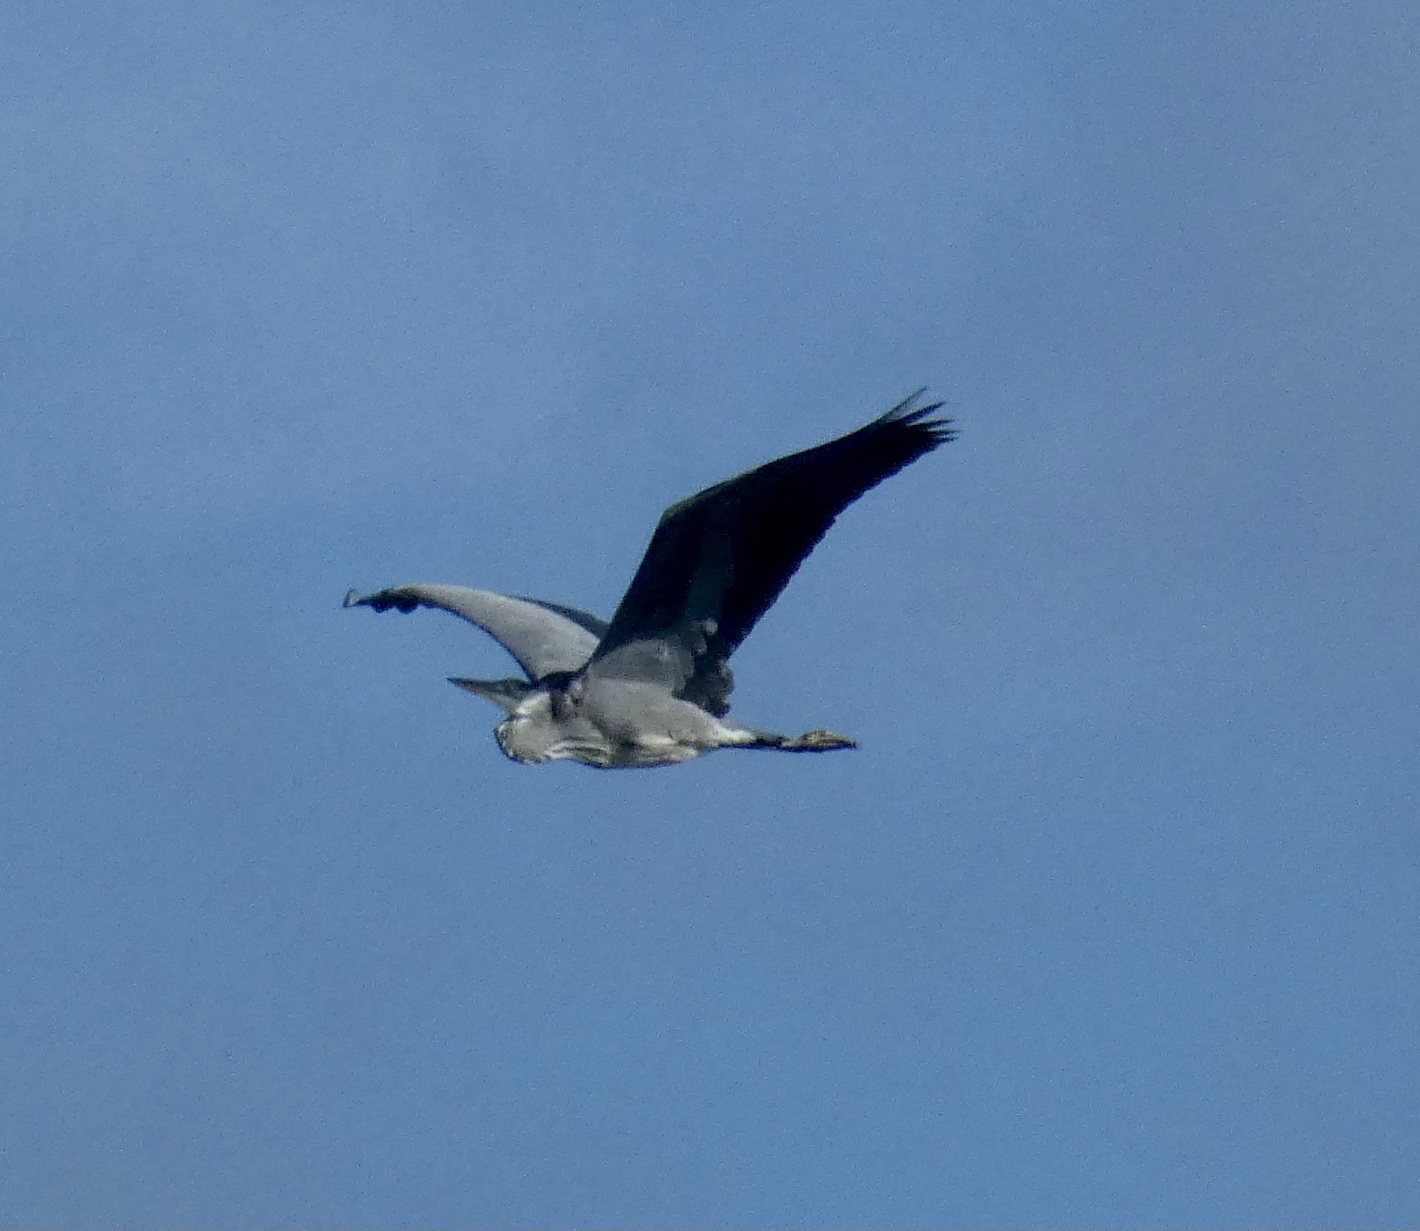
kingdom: Animalia
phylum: Chordata
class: Aves
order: Pelecaniformes
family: Ardeidae
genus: Ardea
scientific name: Ardea cinerea
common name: Grey heron
